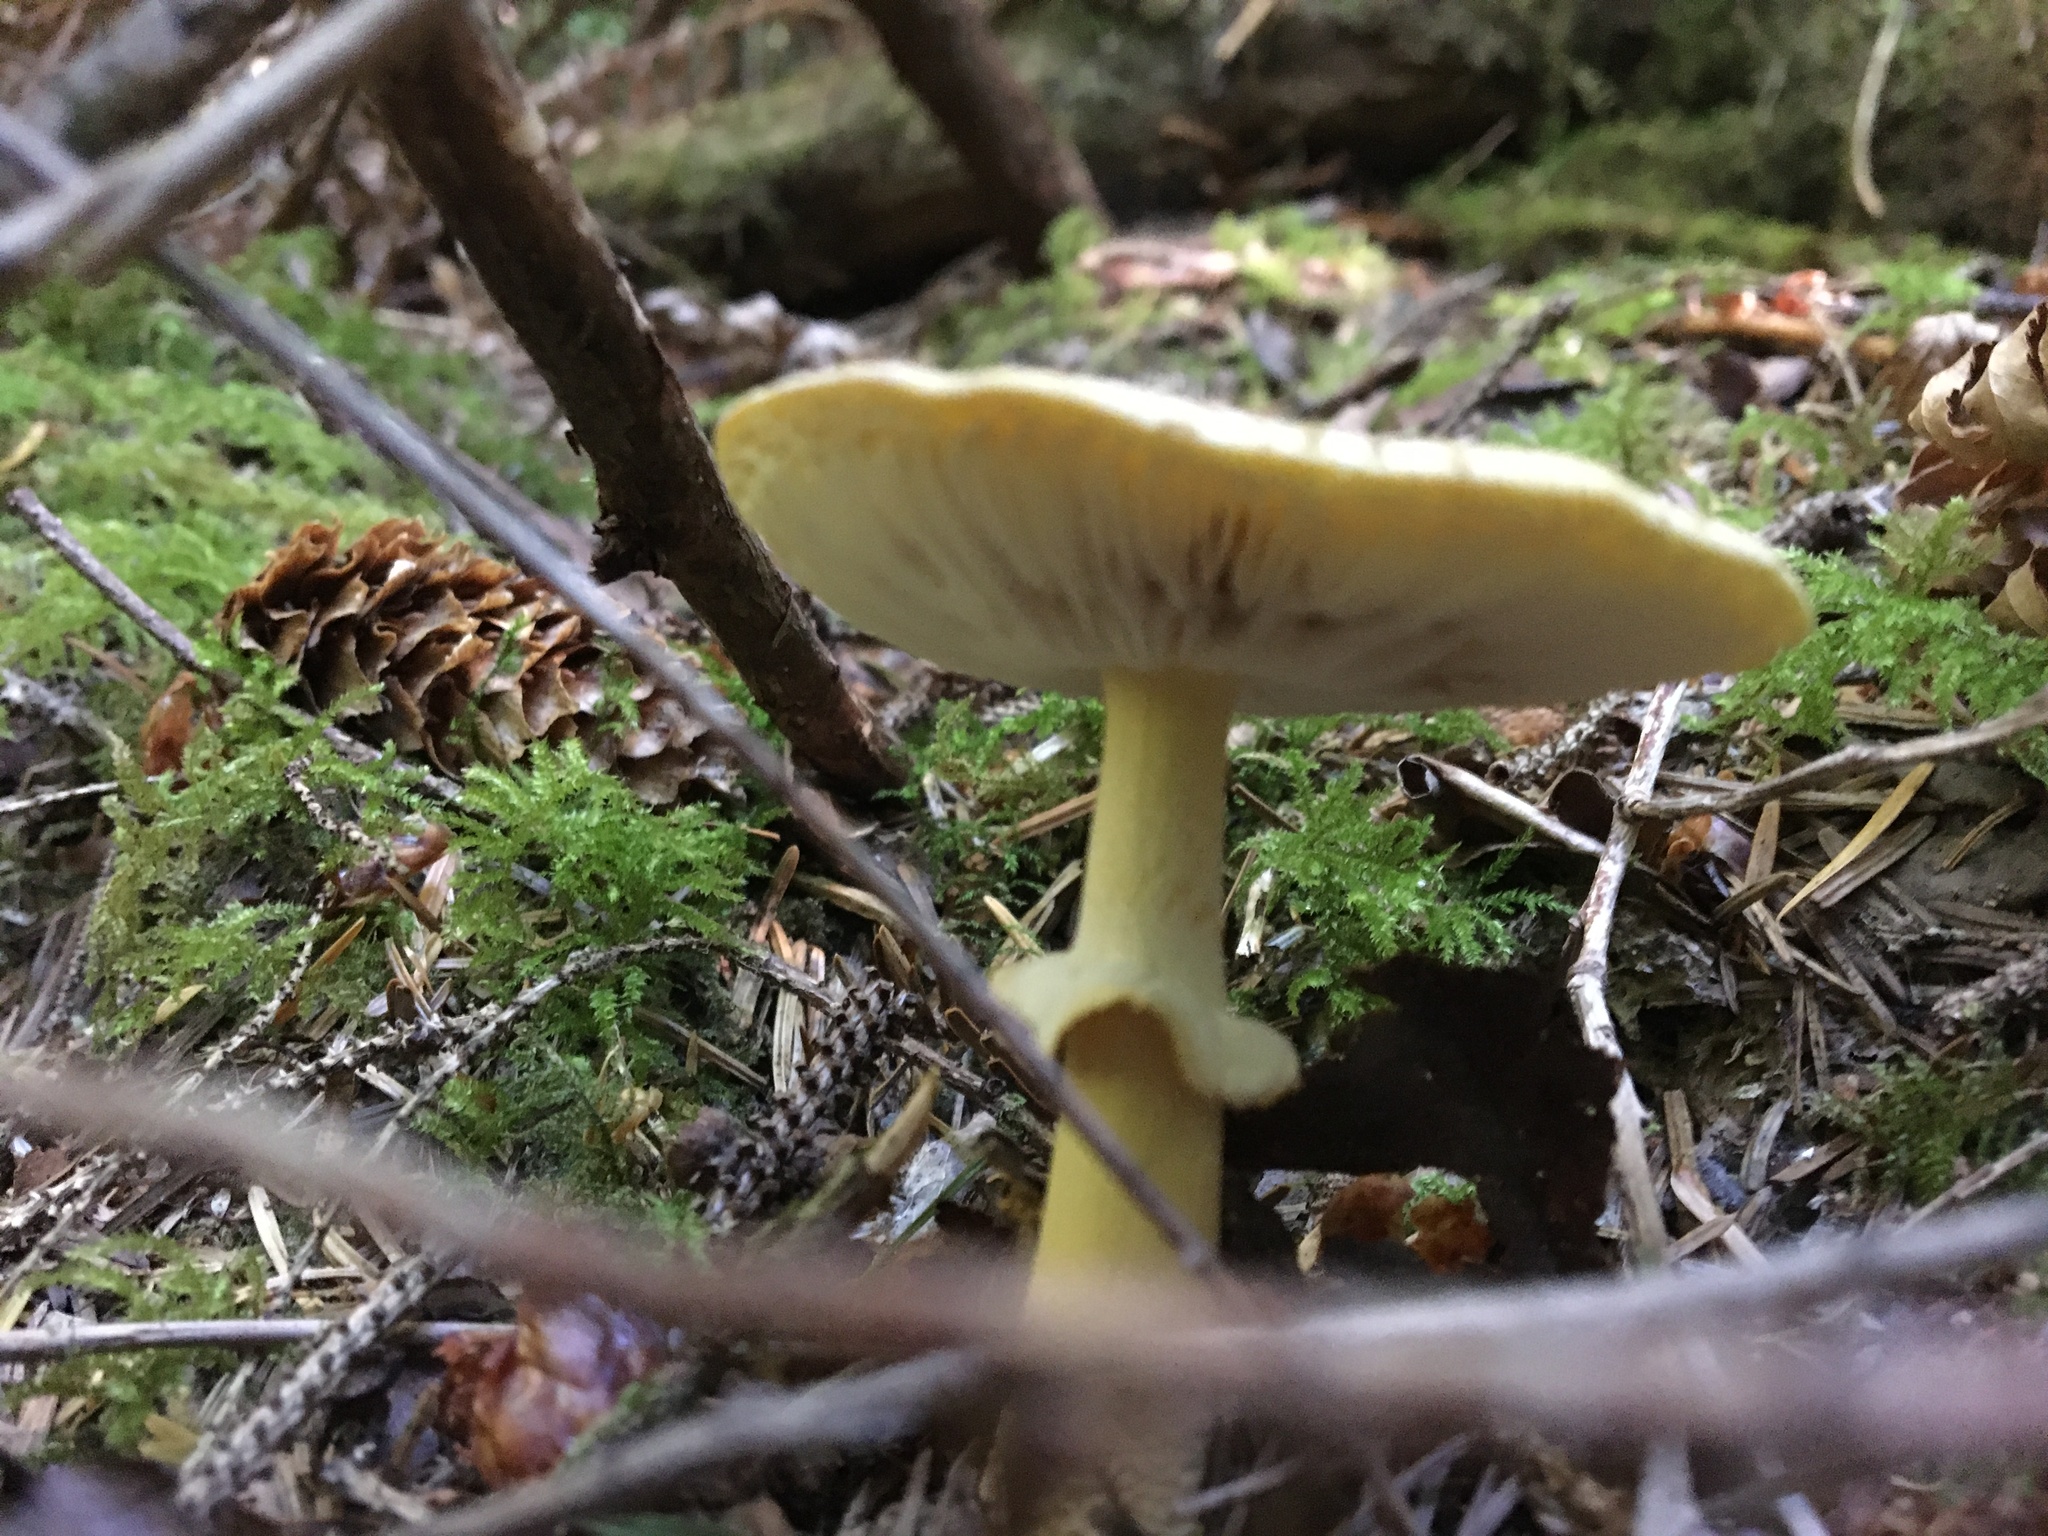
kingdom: Fungi
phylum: Basidiomycota
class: Agaricomycetes
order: Agaricales
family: Amanitaceae
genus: Amanita
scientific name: Amanita augusta
